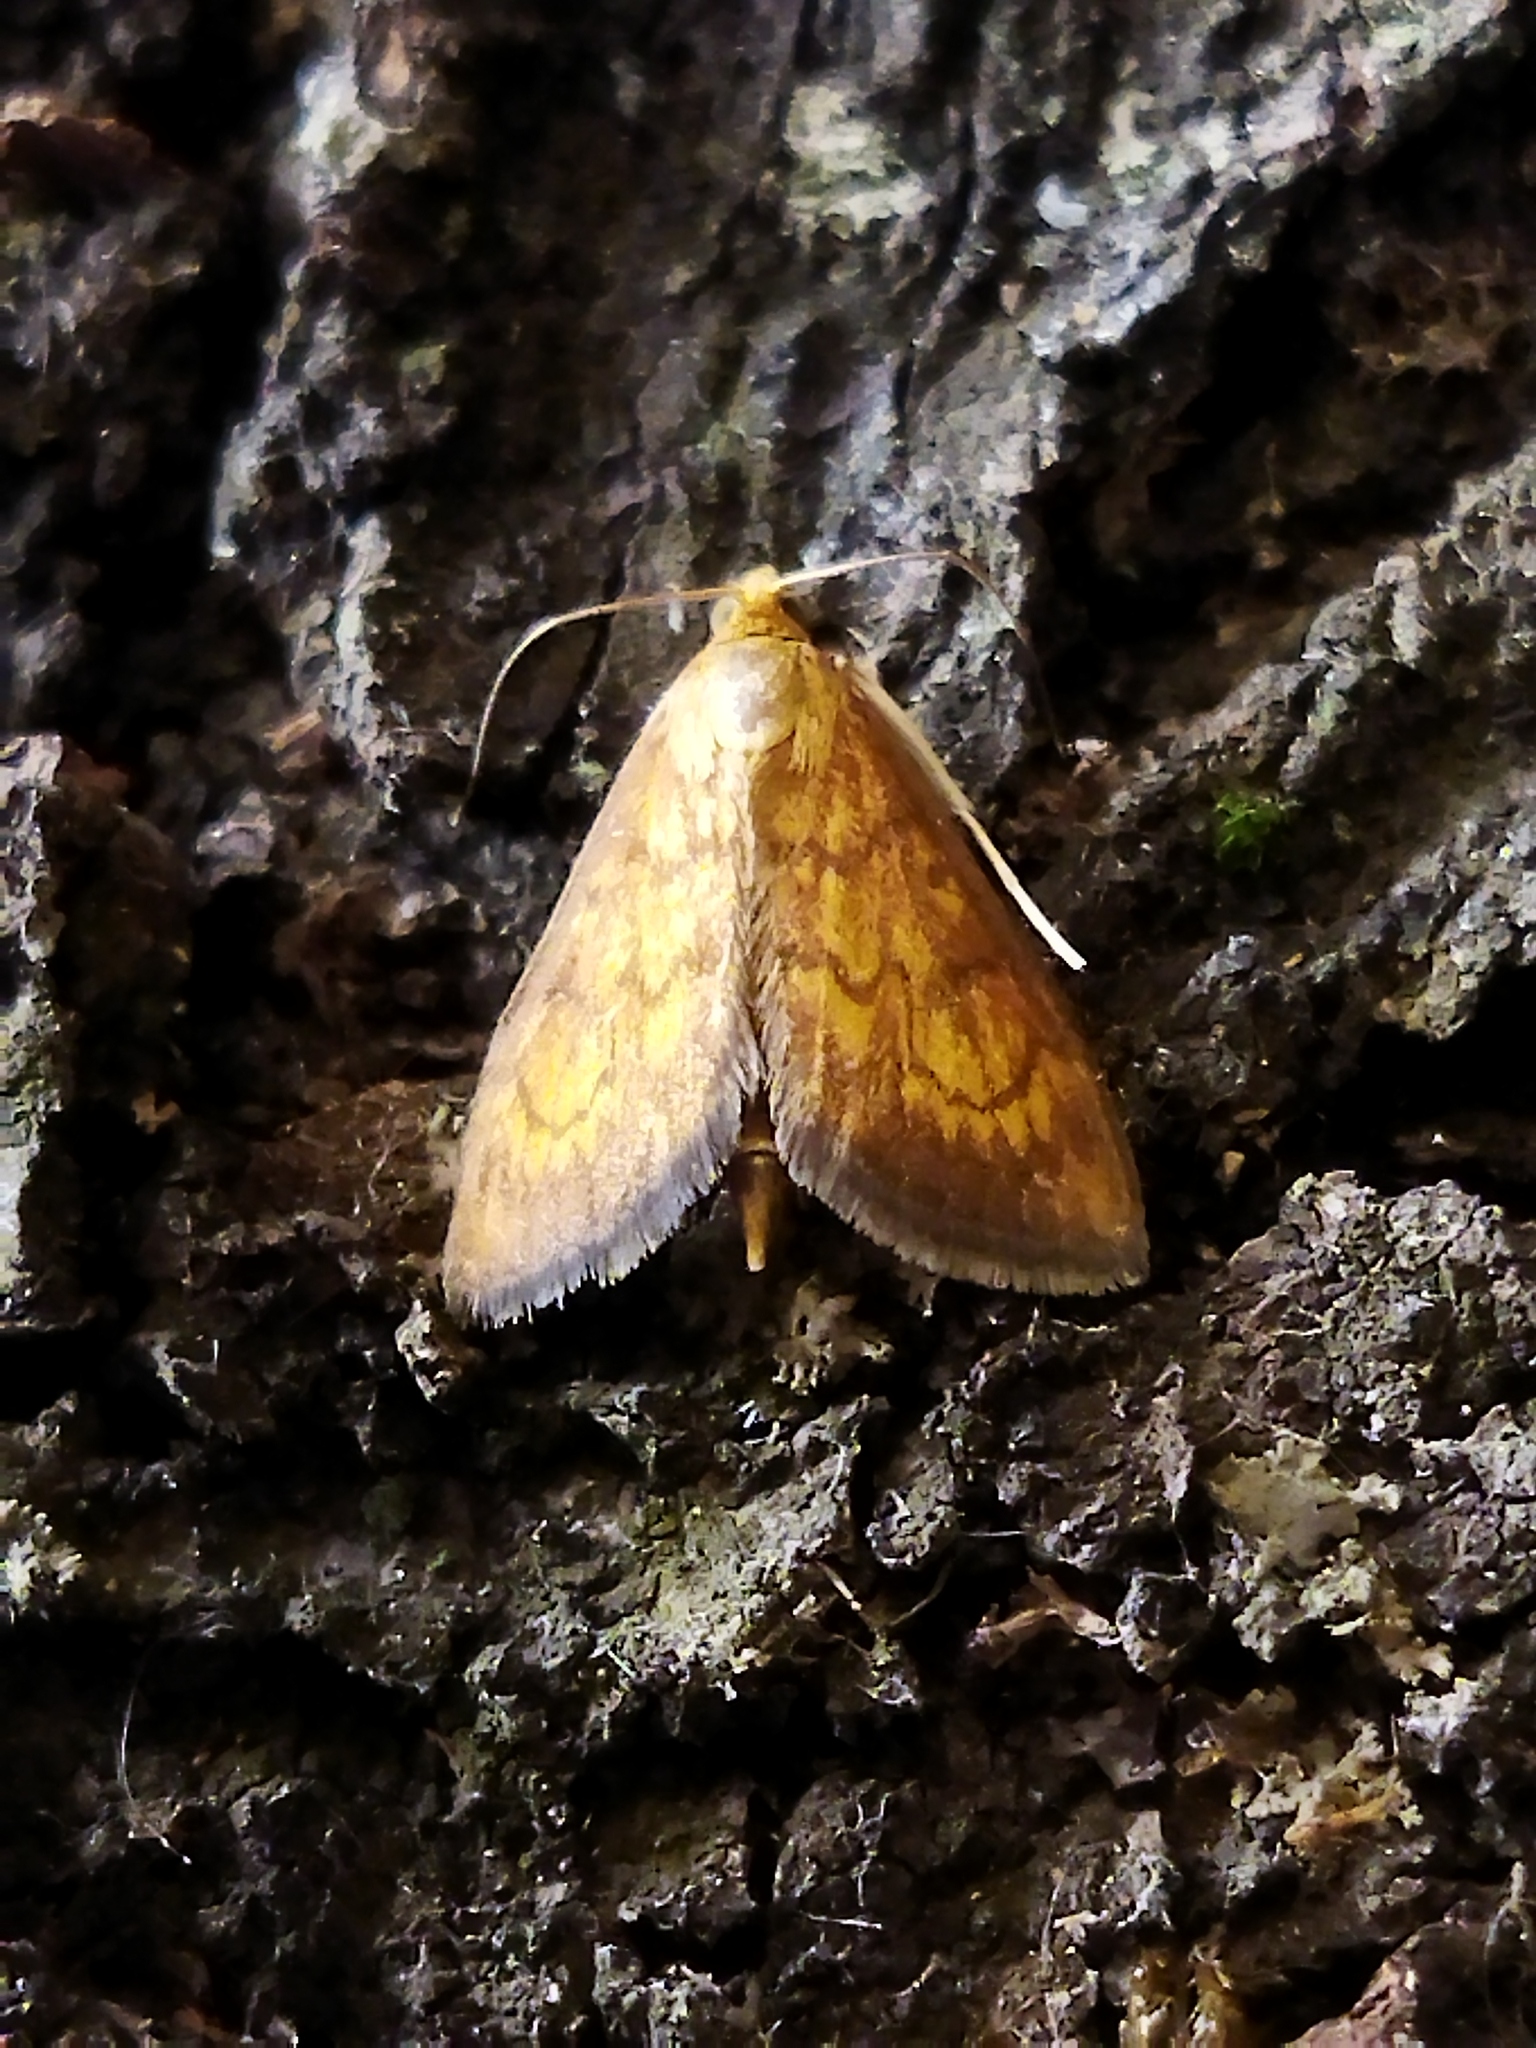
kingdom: Animalia
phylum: Arthropoda
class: Insecta
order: Lepidoptera
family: Crambidae
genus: Ecpyrrhorrhoe
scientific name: Ecpyrrhorrhoe rubiginalis
